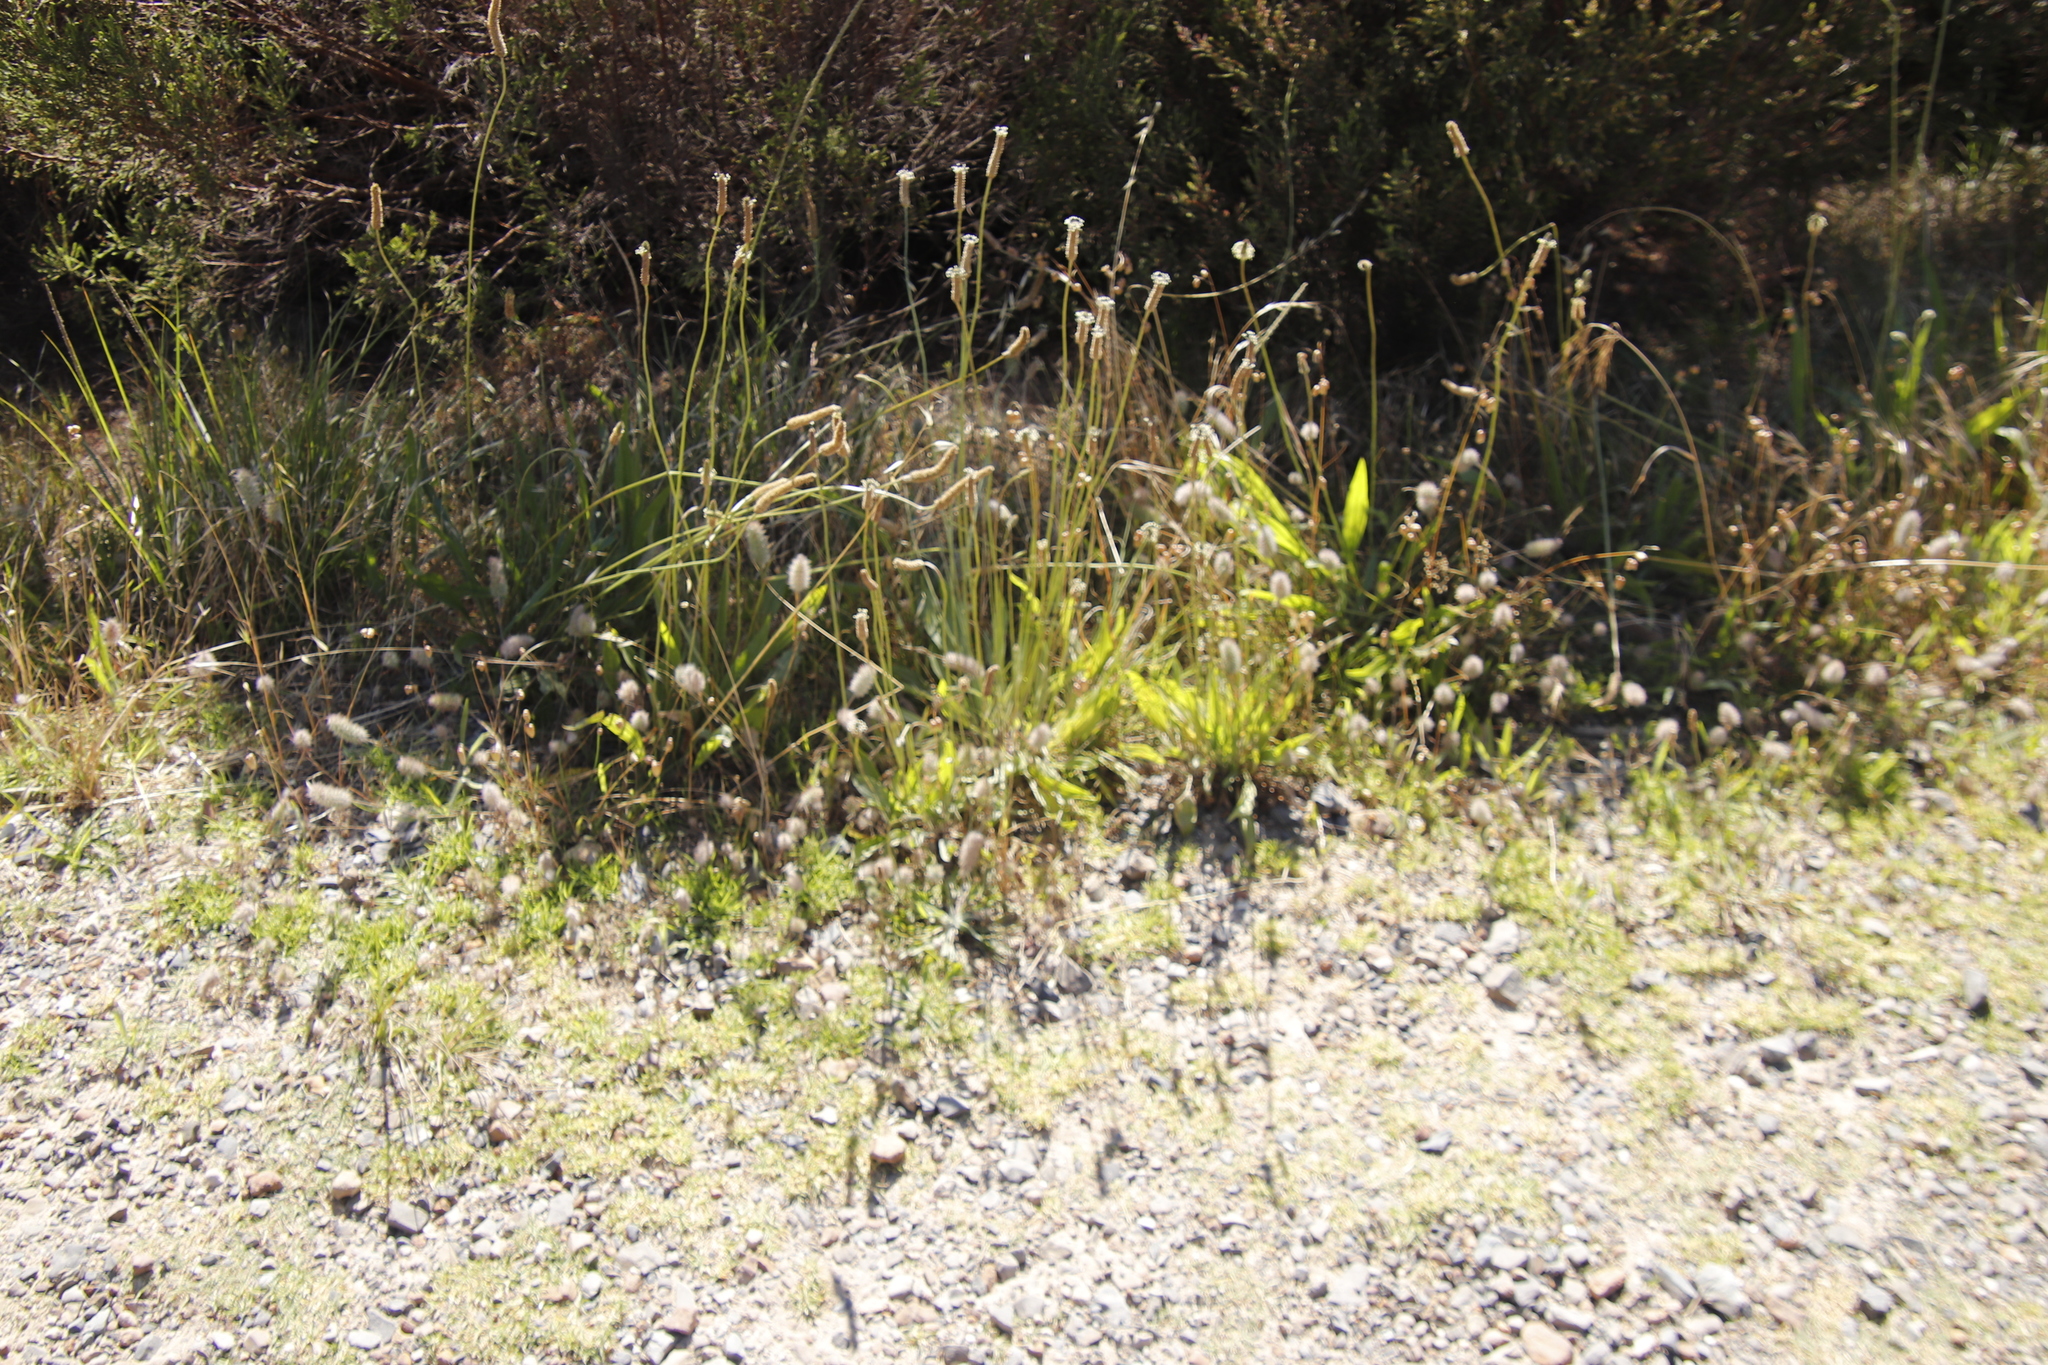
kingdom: Plantae
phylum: Tracheophyta
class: Magnoliopsida
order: Fabales
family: Fabaceae
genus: Trifolium
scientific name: Trifolium angustifolium
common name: Narrow clover
